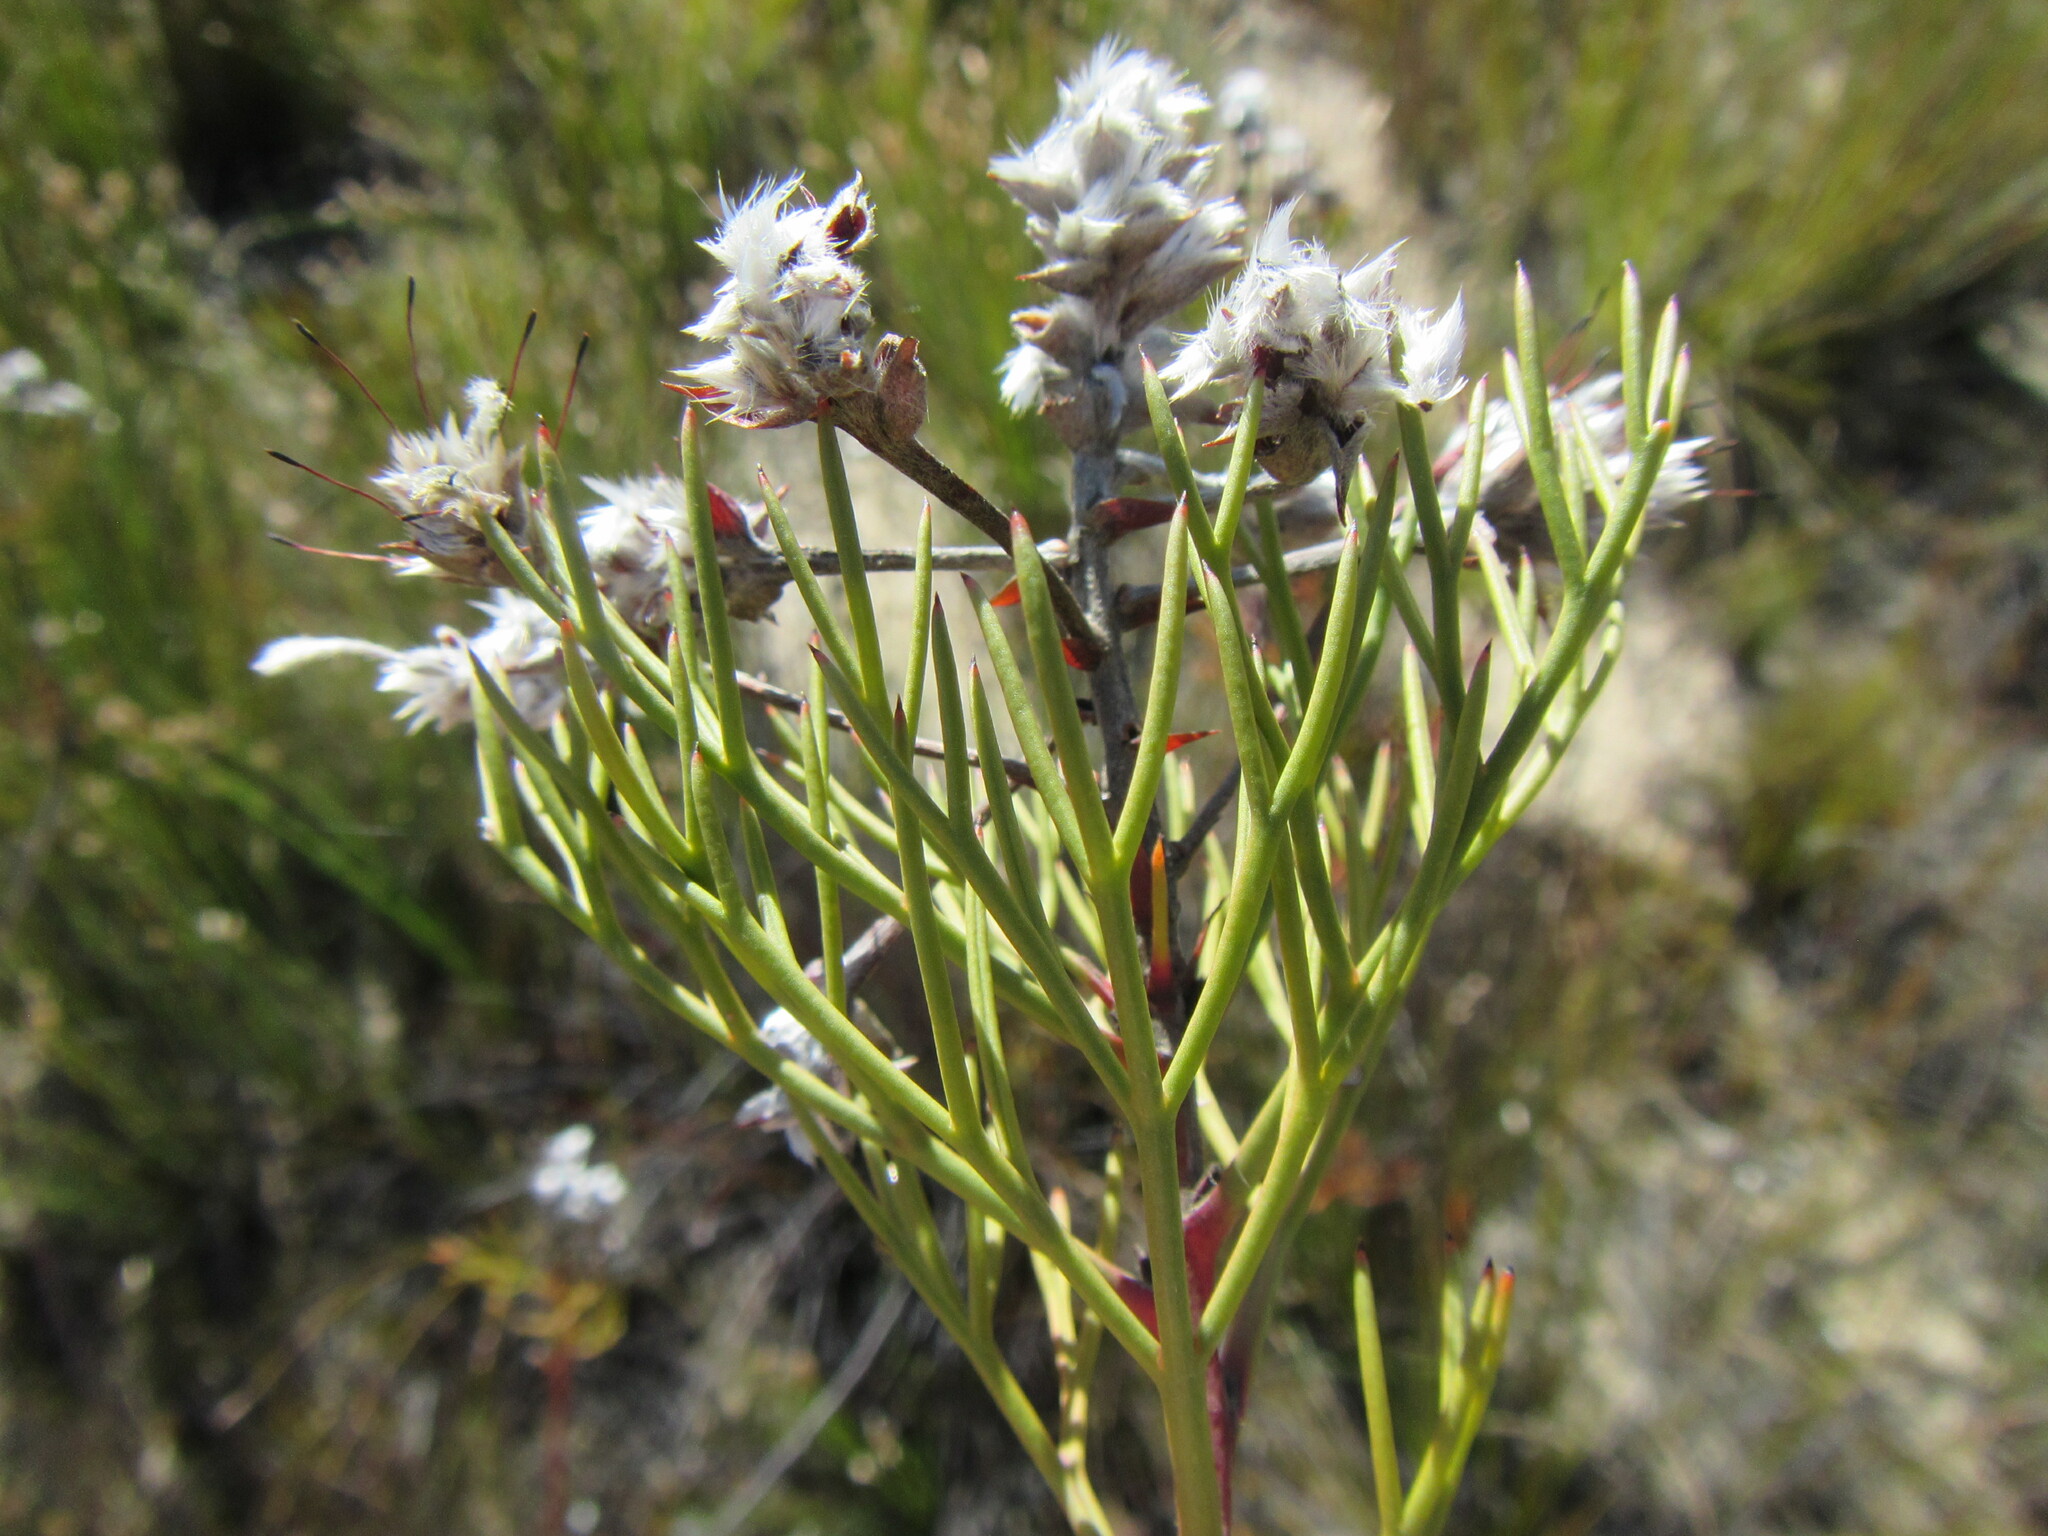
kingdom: Plantae
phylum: Tracheophyta
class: Magnoliopsida
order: Proteales
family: Proteaceae
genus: Serruria
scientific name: Serruria confragosa
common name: Wavy spiderhead
